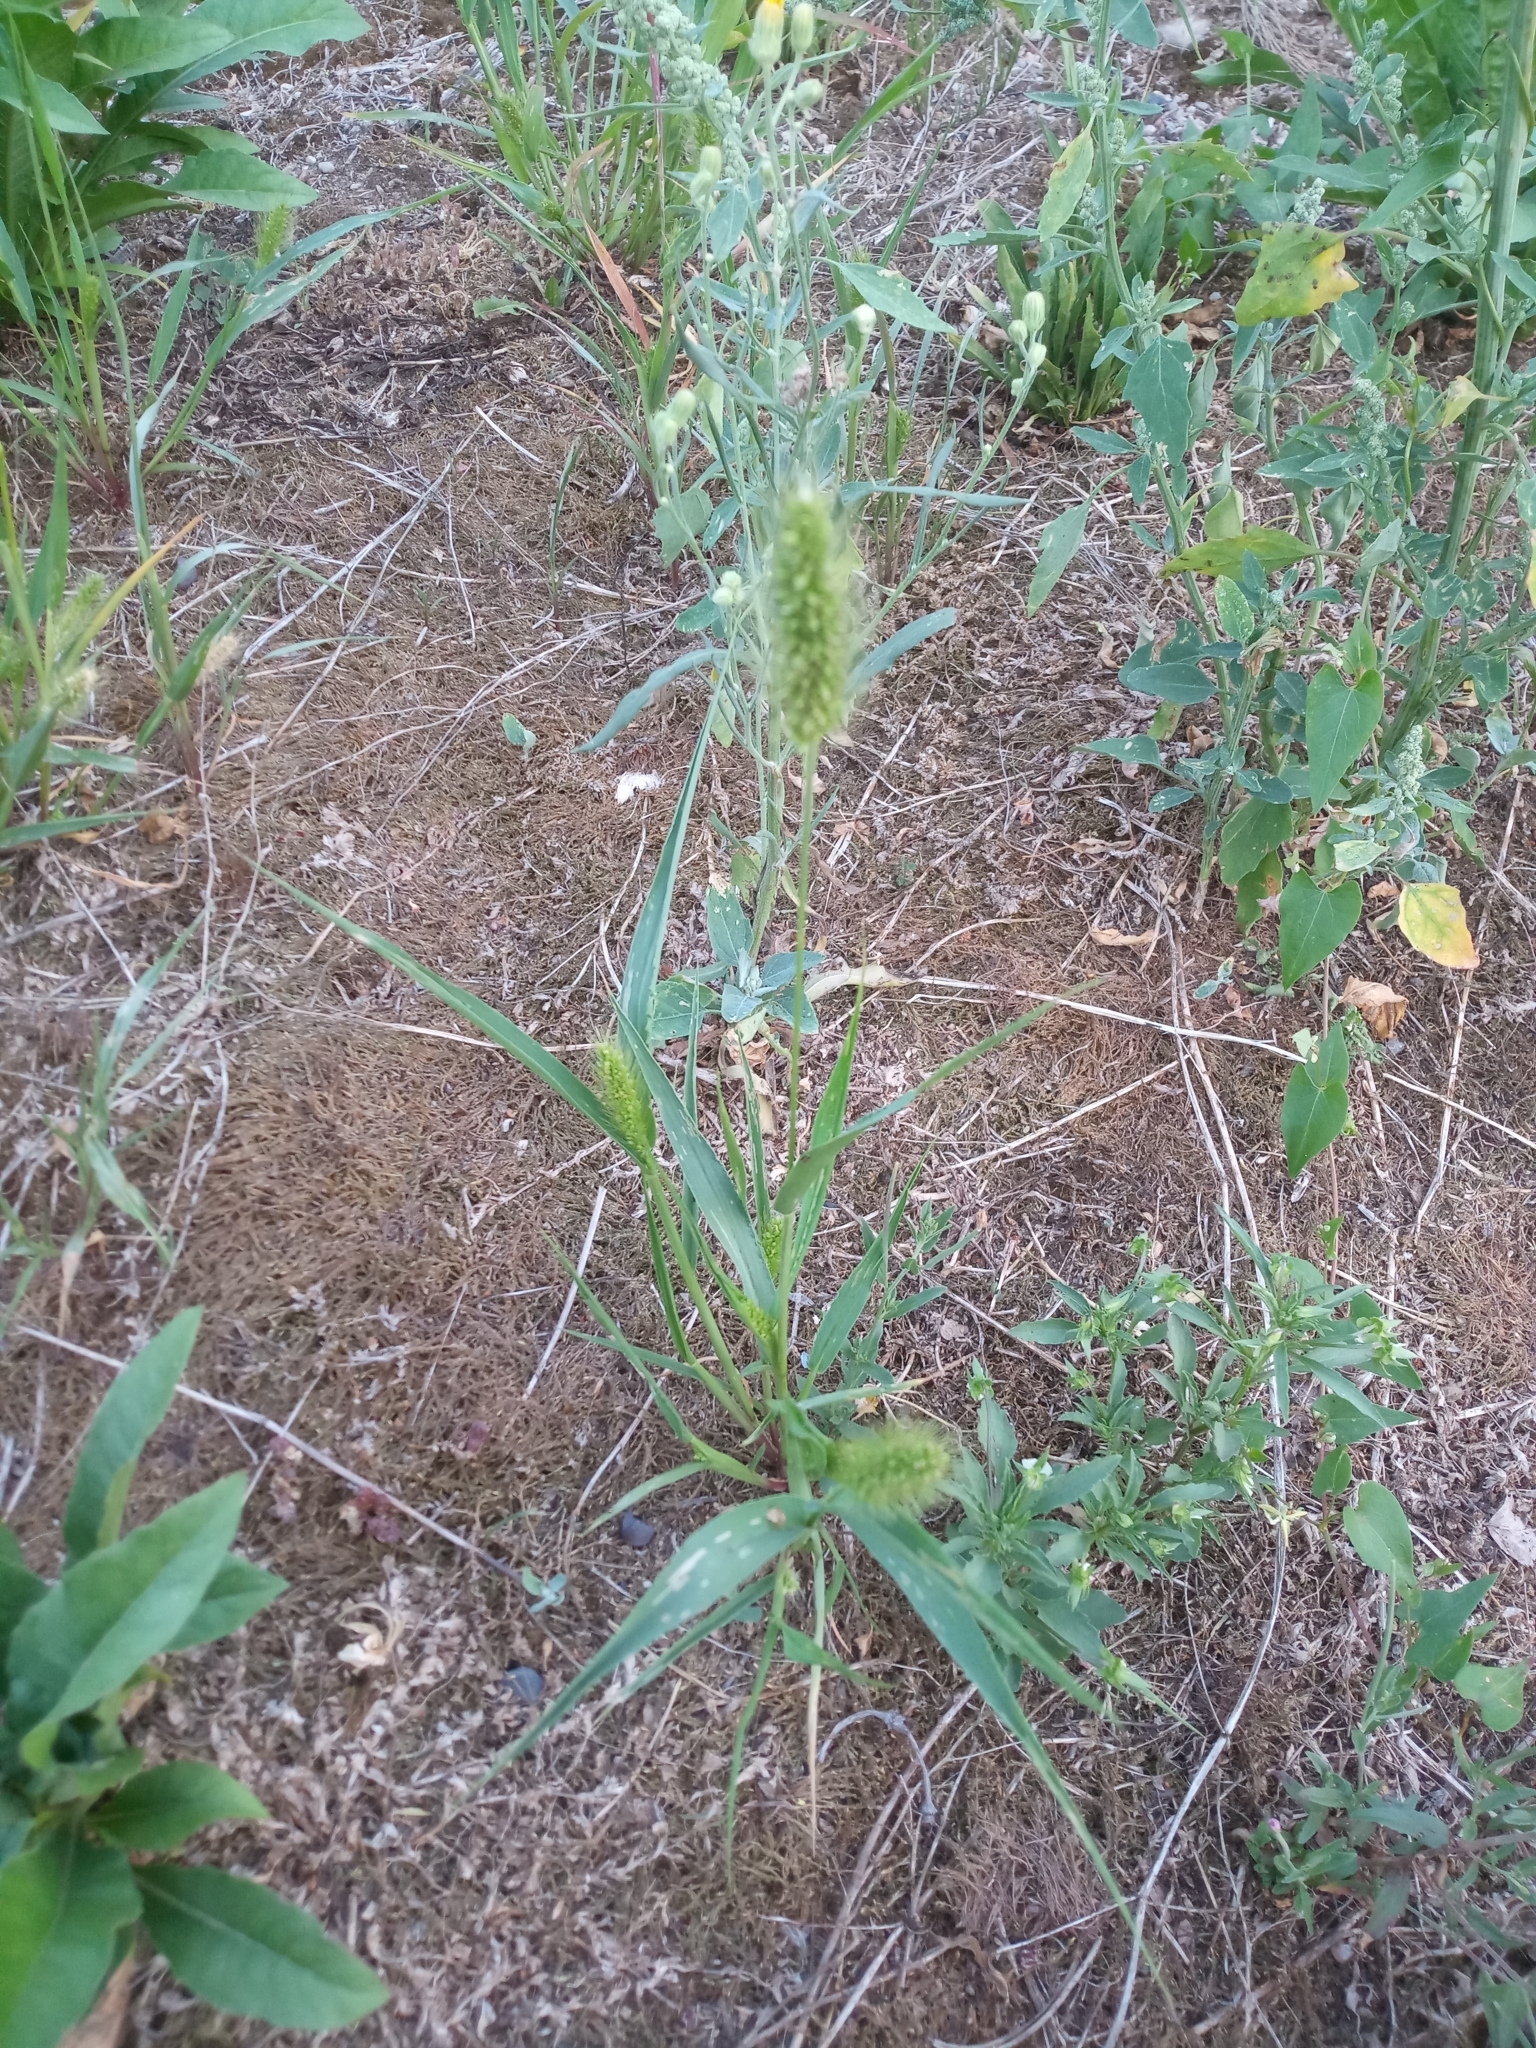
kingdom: Plantae
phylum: Tracheophyta
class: Liliopsida
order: Poales
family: Poaceae
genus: Setaria
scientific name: Setaria viridis
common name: Green bristlegrass
